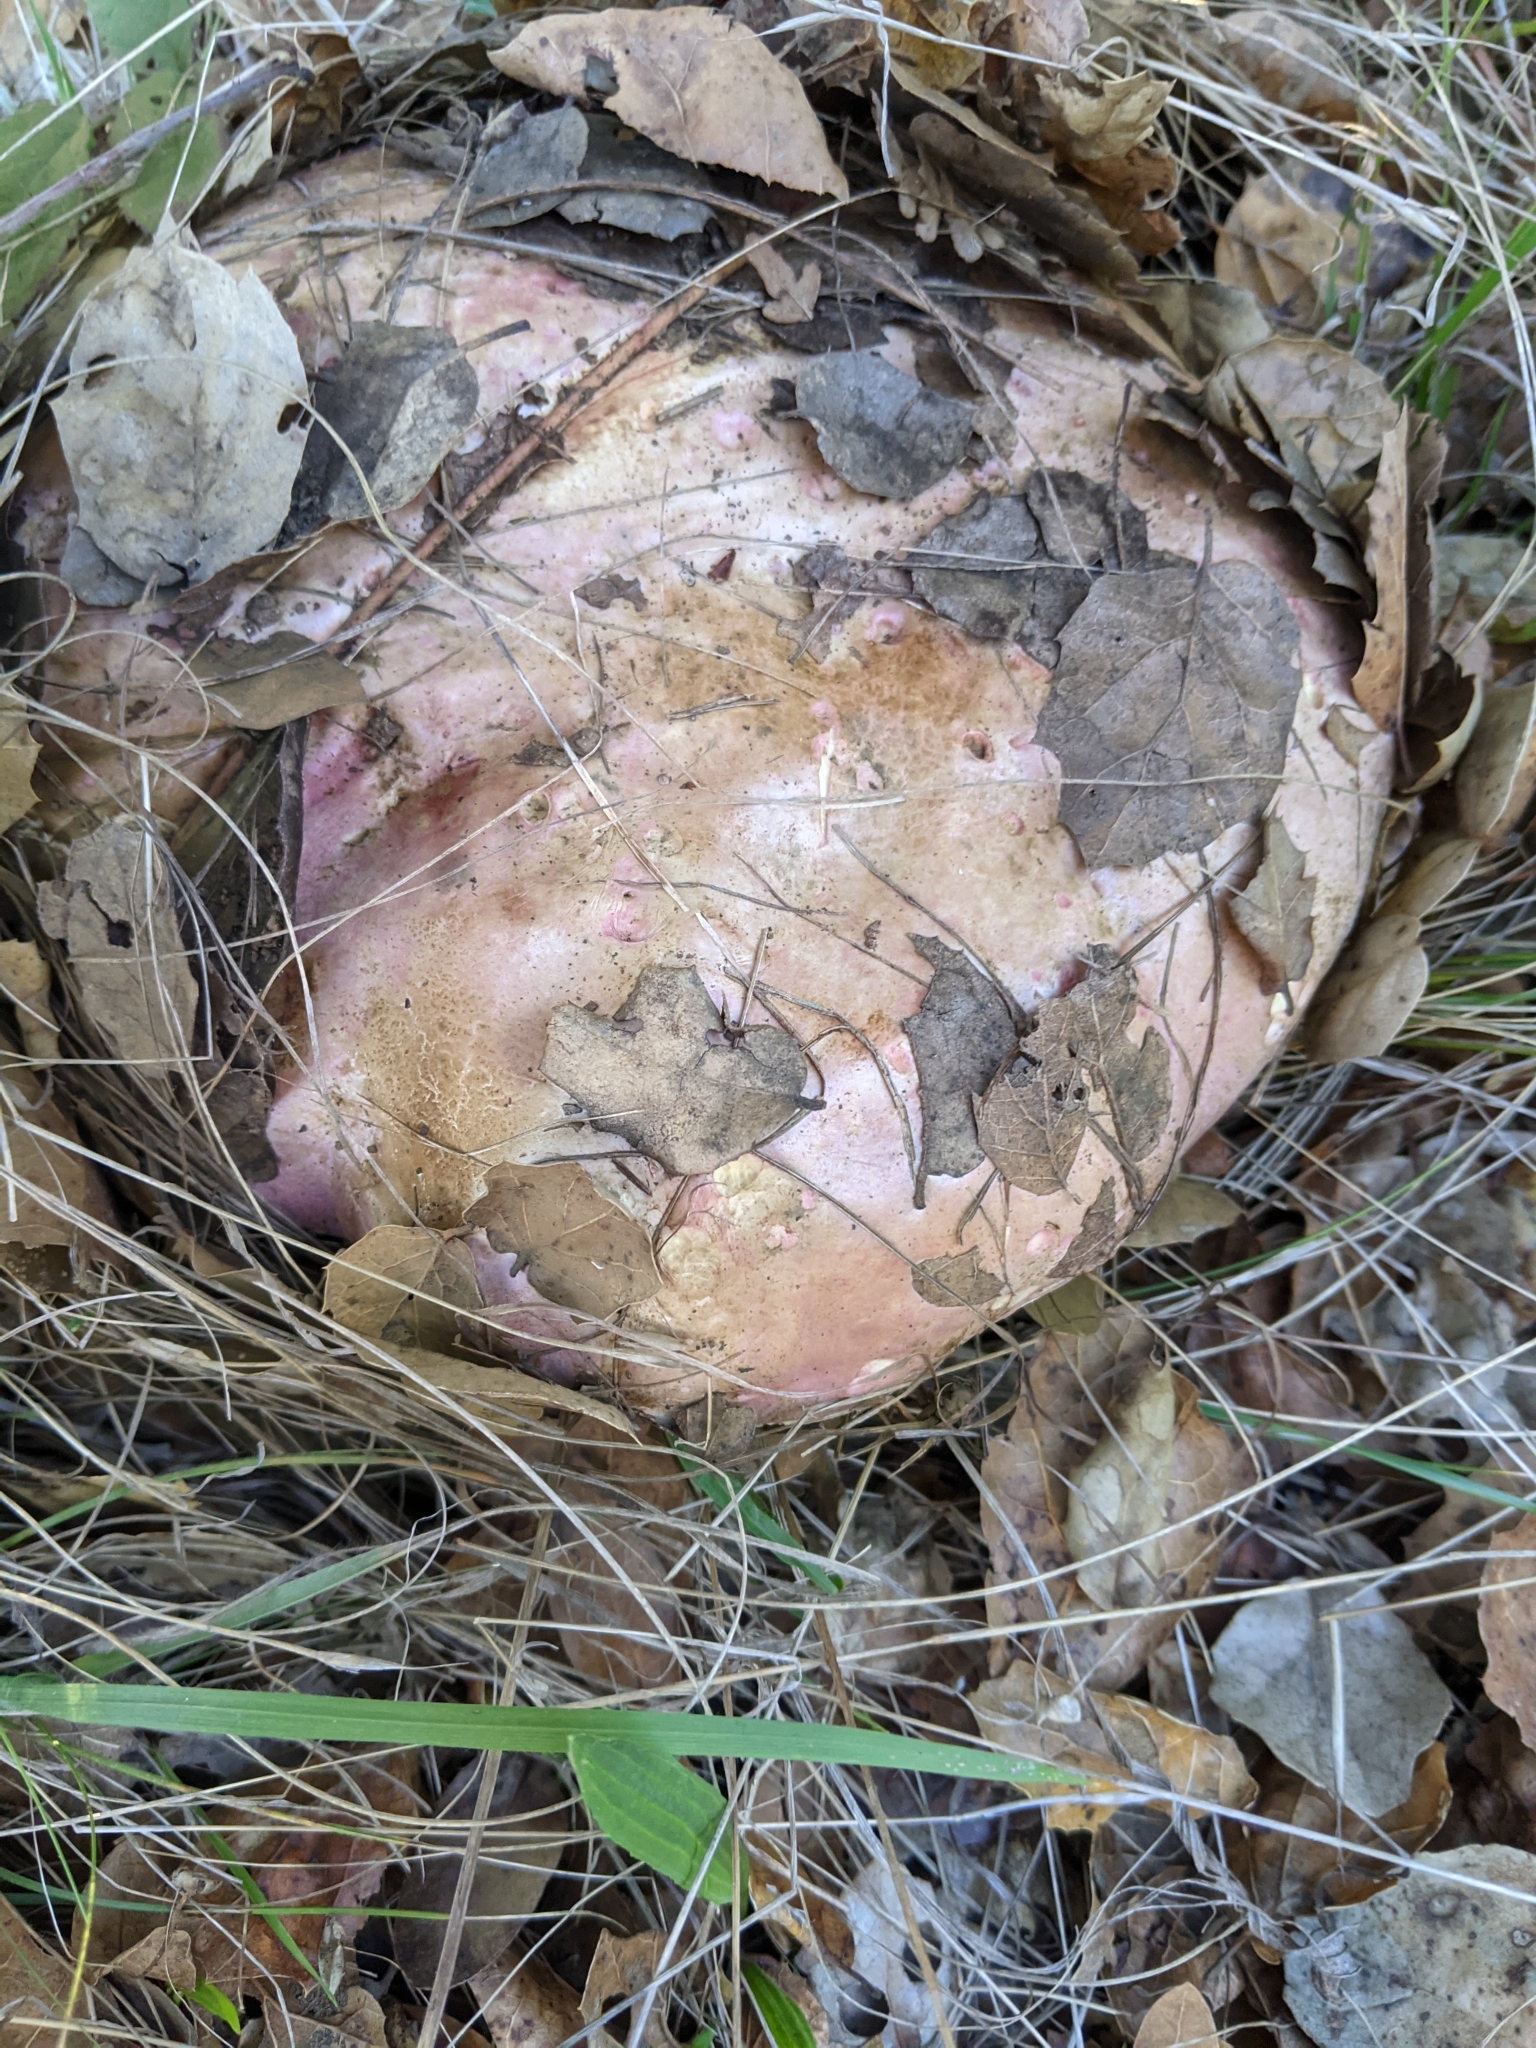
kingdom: Fungi
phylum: Basidiomycota
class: Agaricomycetes
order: Boletales
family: Boletaceae
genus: Rubroboletus
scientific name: Rubroboletus eastwoodiae
